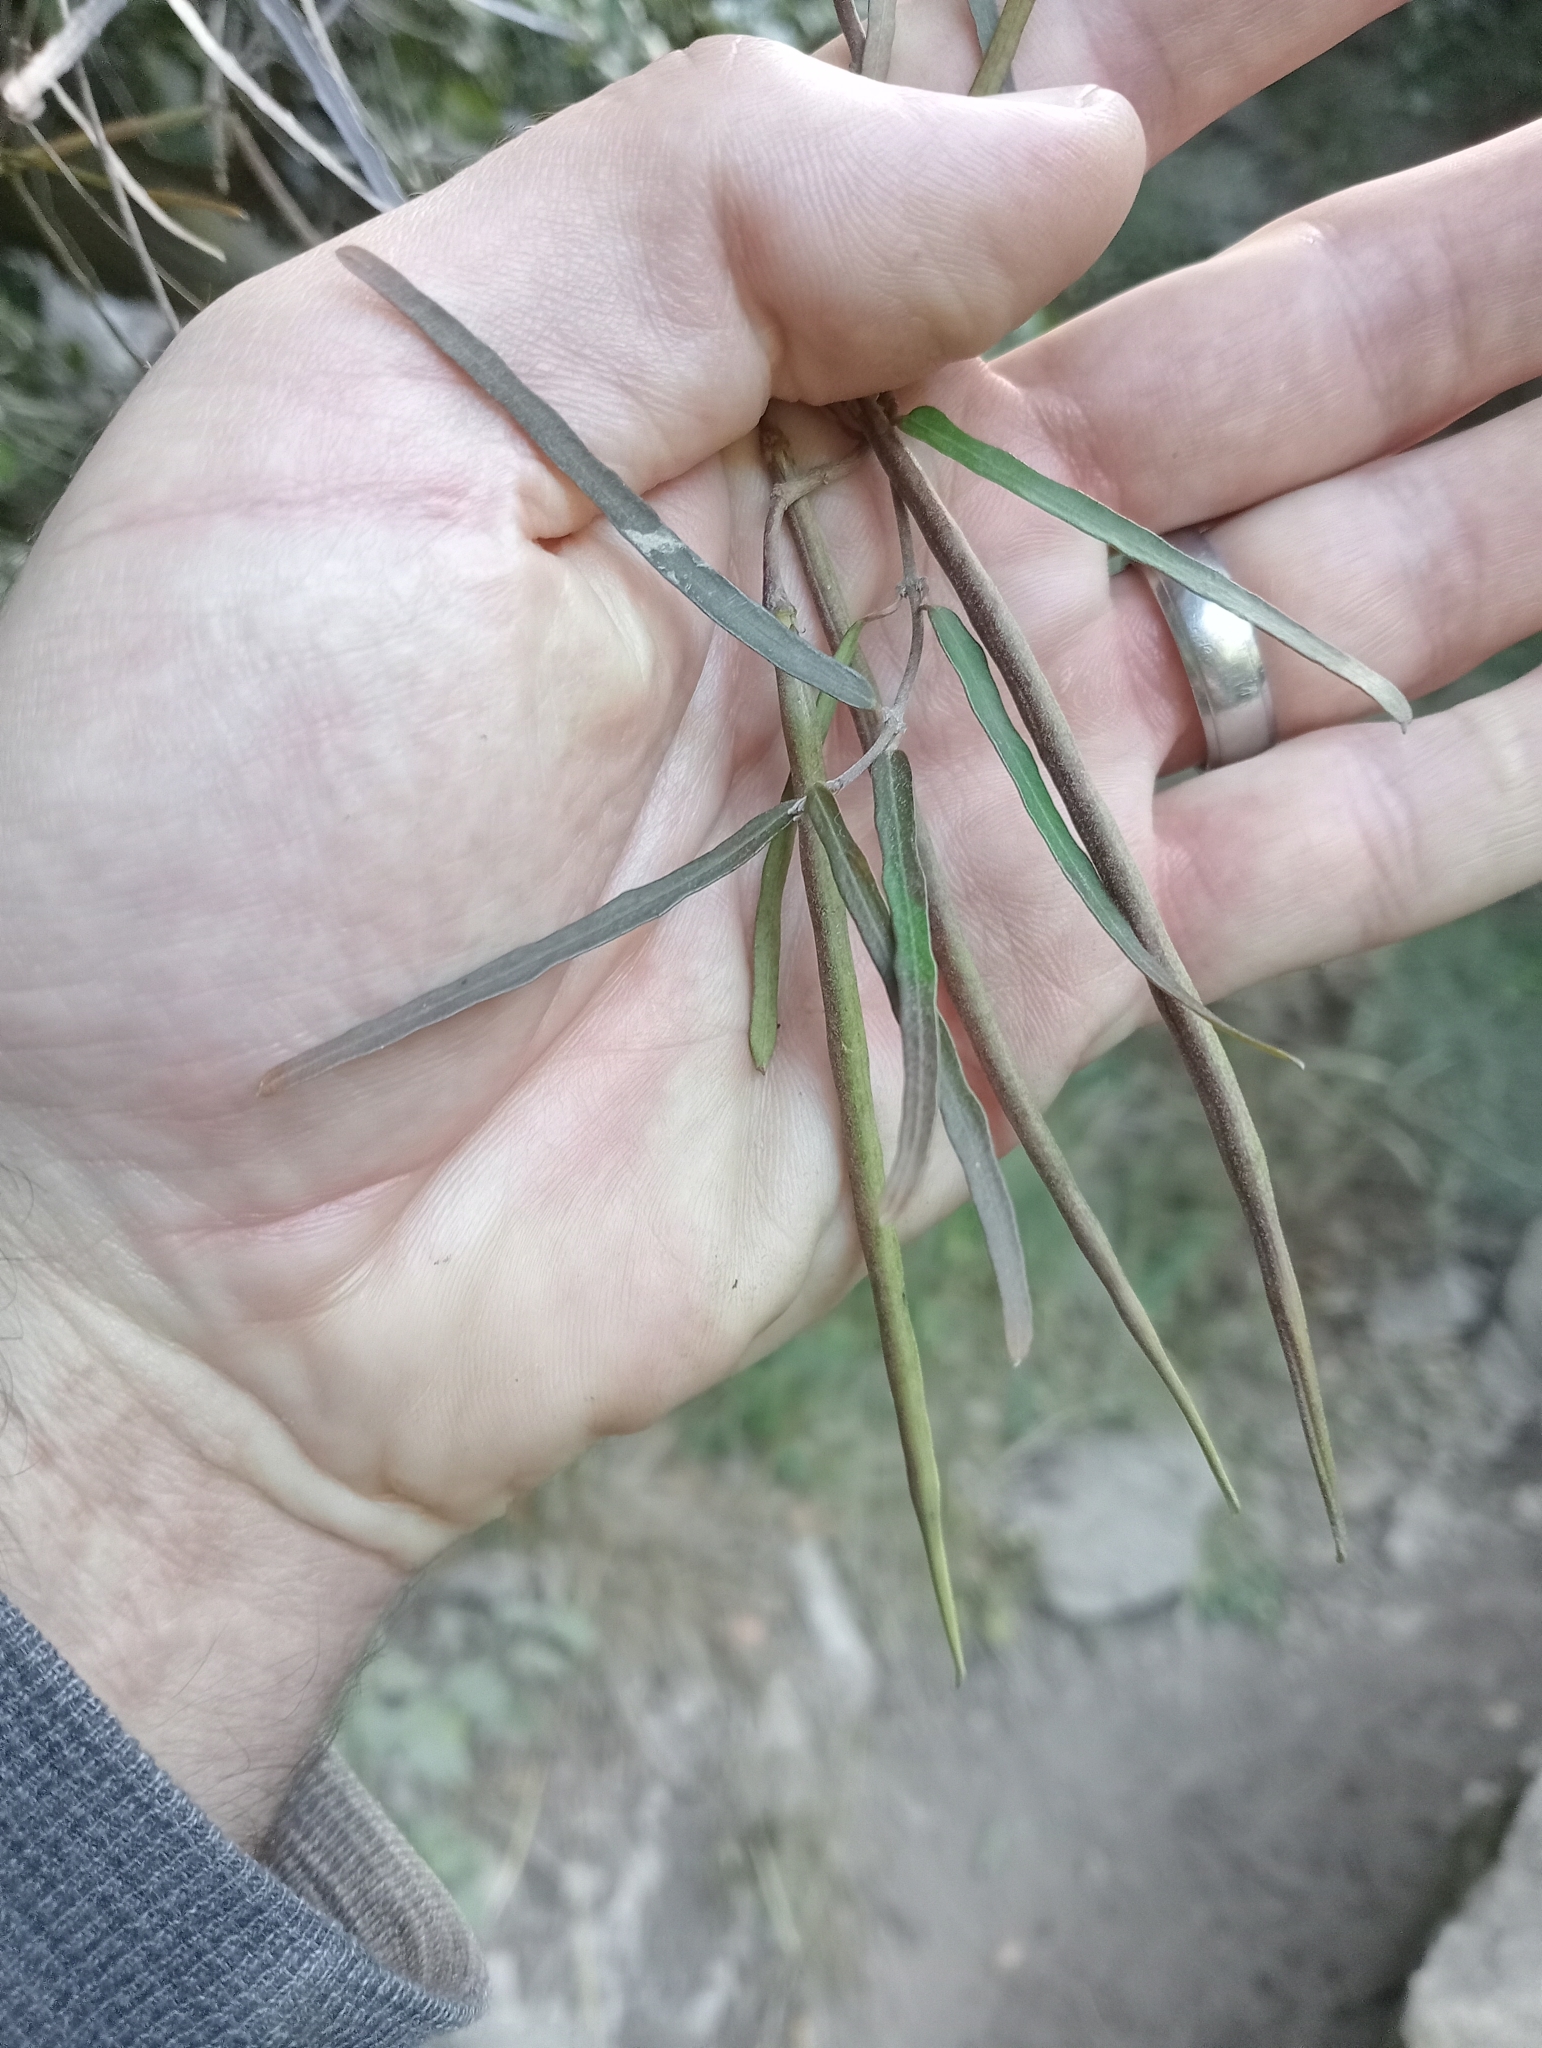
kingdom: Plantae
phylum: Tracheophyta
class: Magnoliopsida
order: Gentianales
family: Apocynaceae
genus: Parsonsia
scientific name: Parsonsia capsularis
